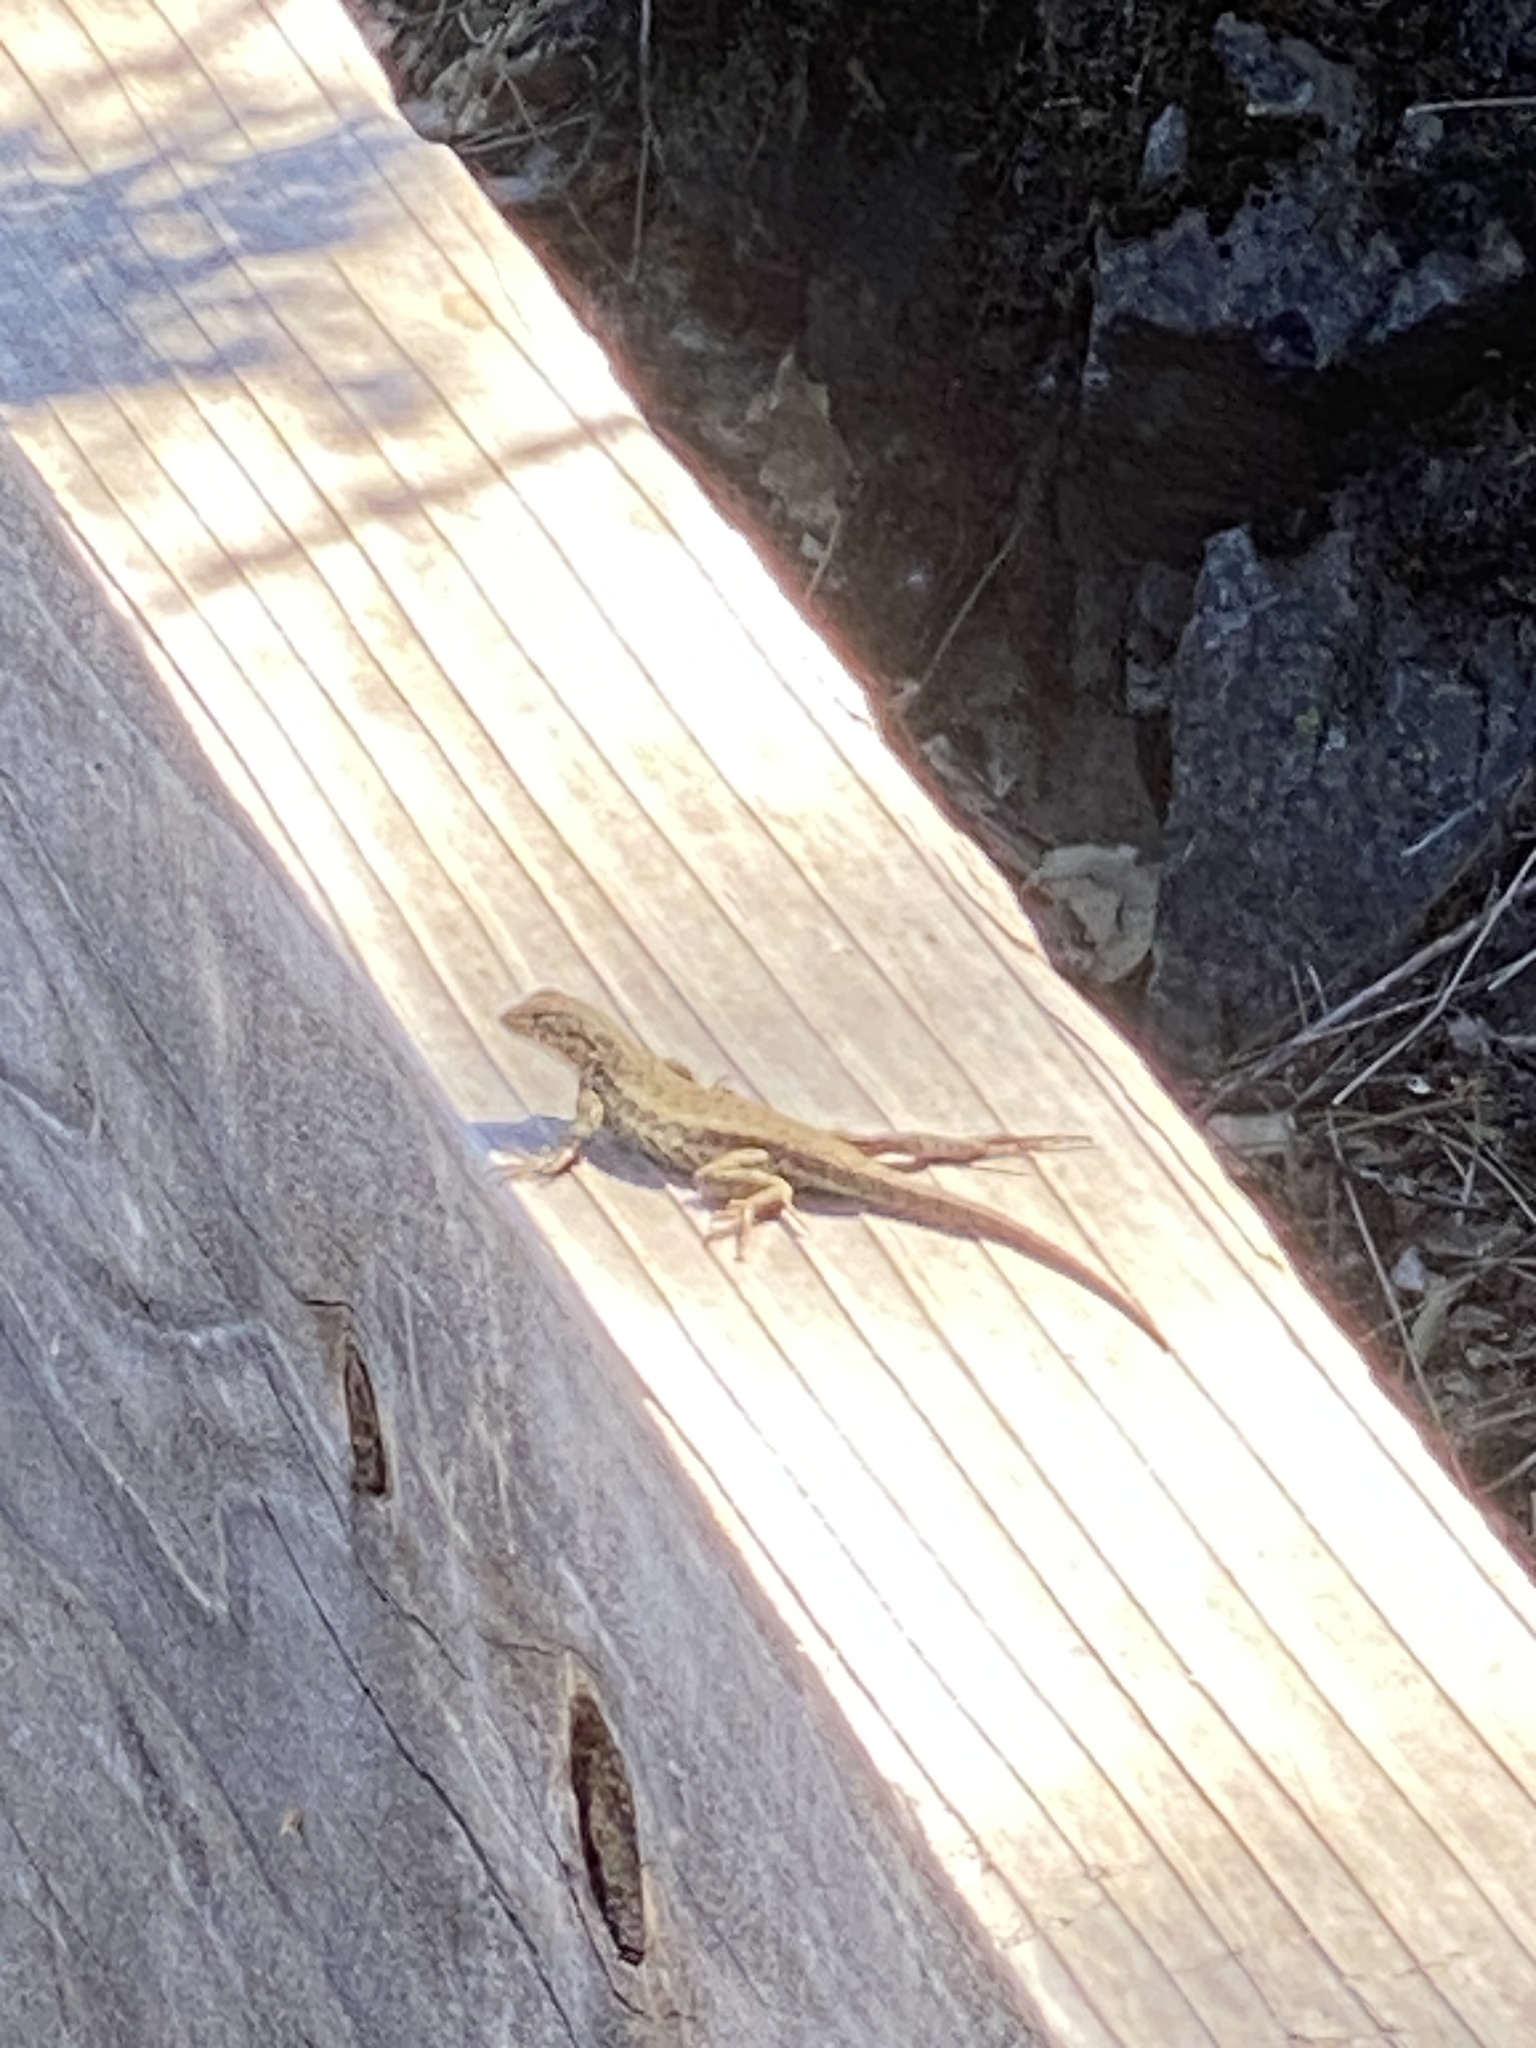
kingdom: Animalia
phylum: Chordata
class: Squamata
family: Phrynosomatidae
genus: Sceloporus
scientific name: Sceloporus graciosus
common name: Sagebrush lizard
